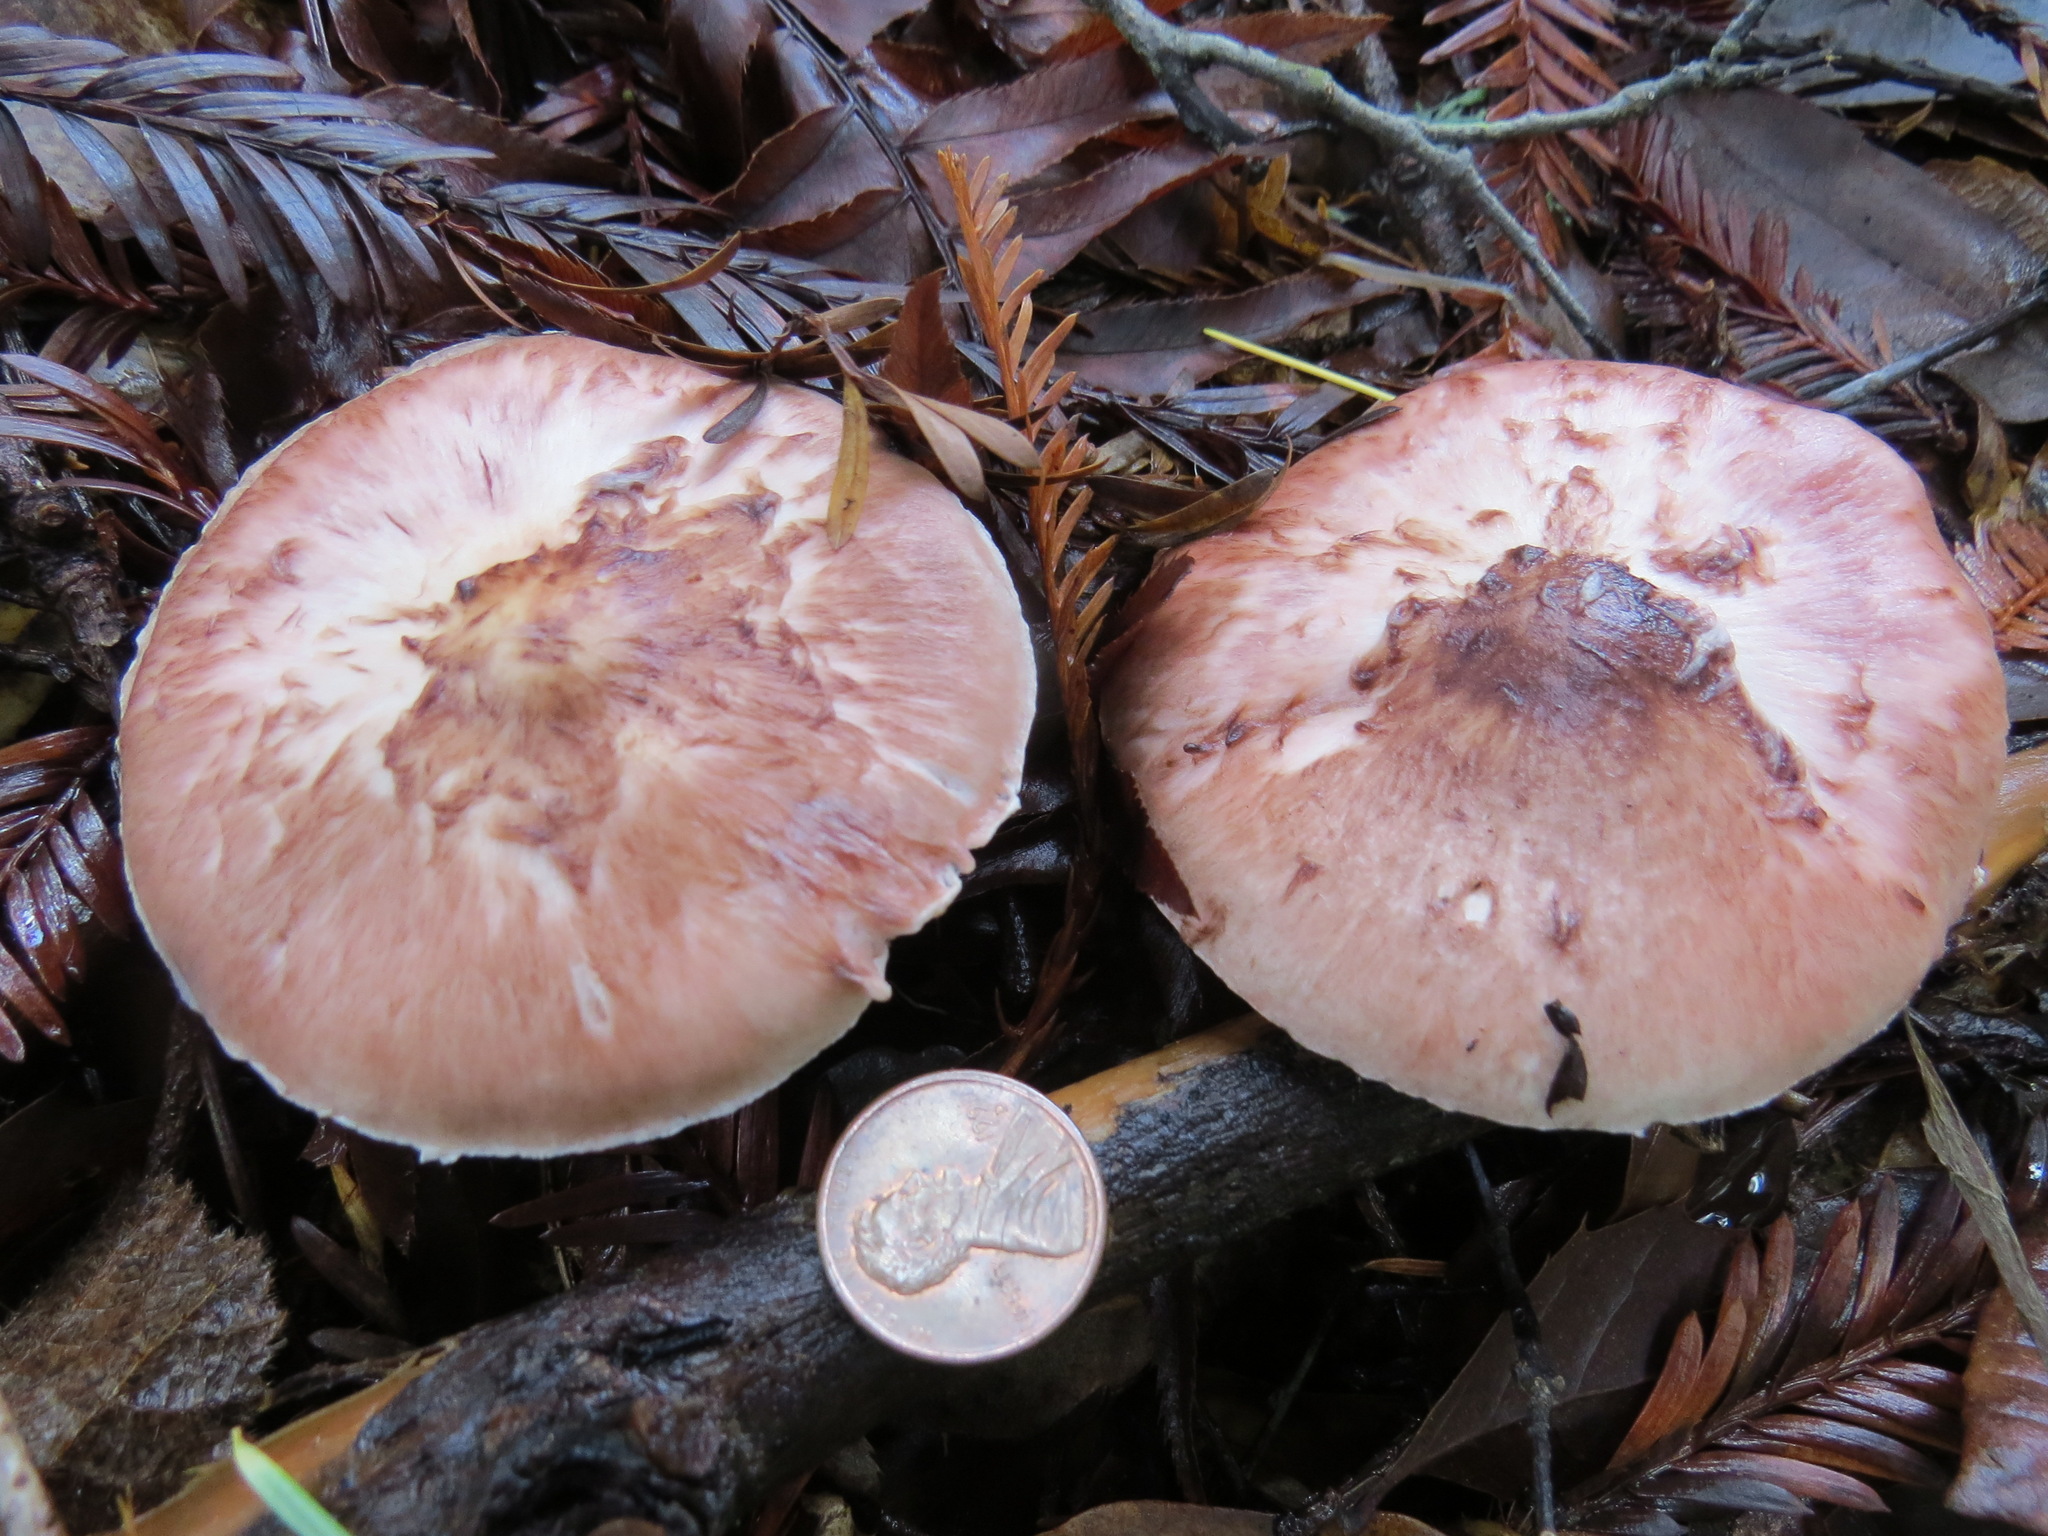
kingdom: Fungi
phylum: Basidiomycota
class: Agaricomycetes
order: Agaricales
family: Agaricaceae
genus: Agaricus
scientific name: Agaricus subrutilescens
